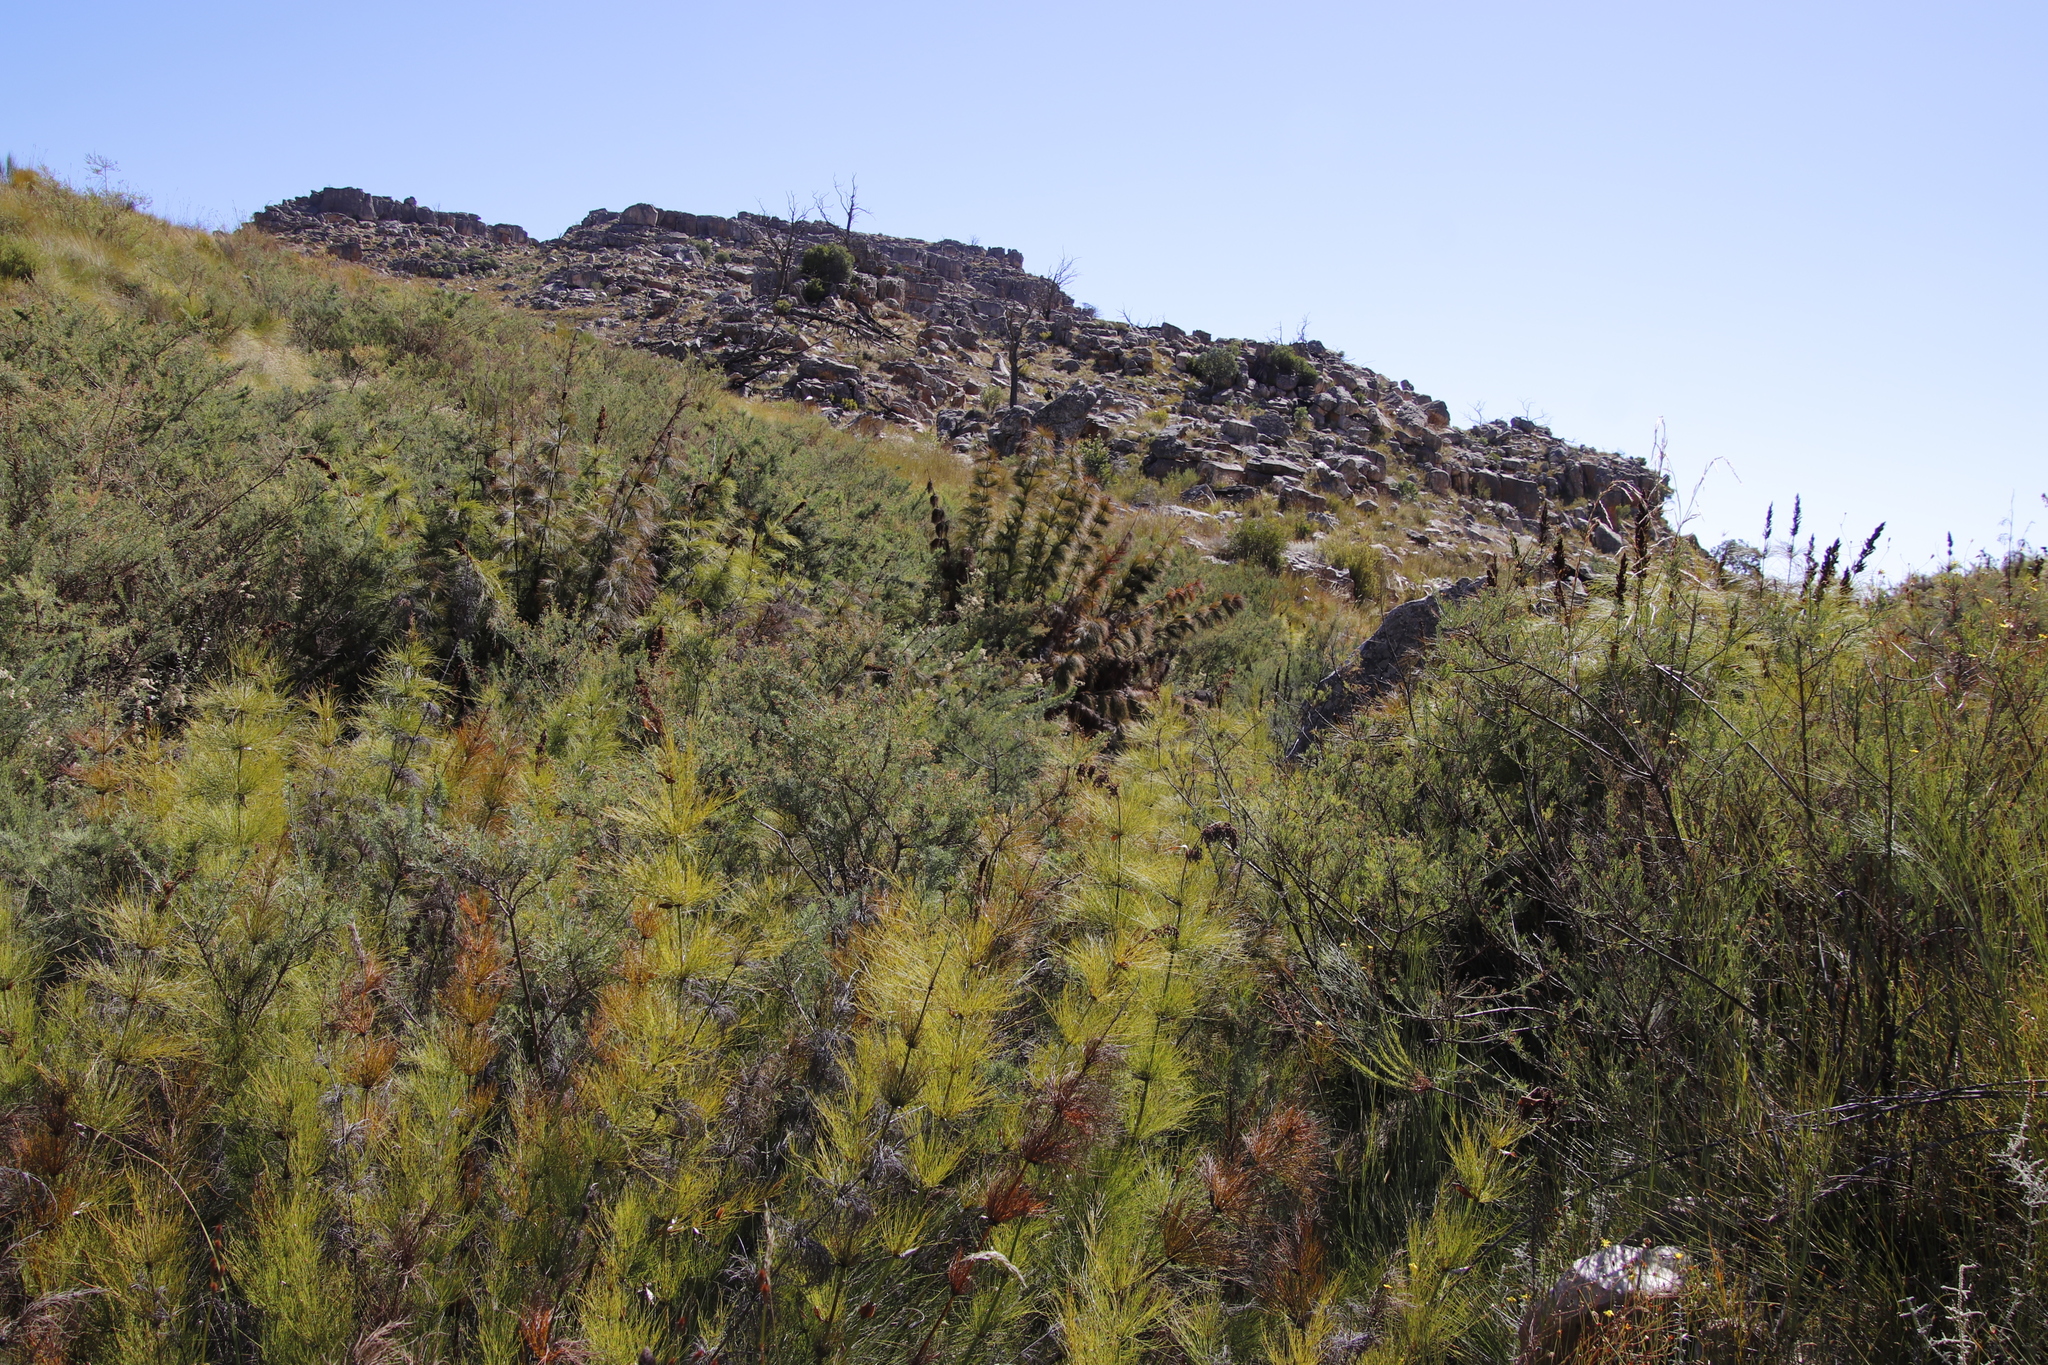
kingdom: Plantae
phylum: Tracheophyta
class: Magnoliopsida
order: Fabales
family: Fabaceae
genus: Psoralea
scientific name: Psoralea verrucosa
